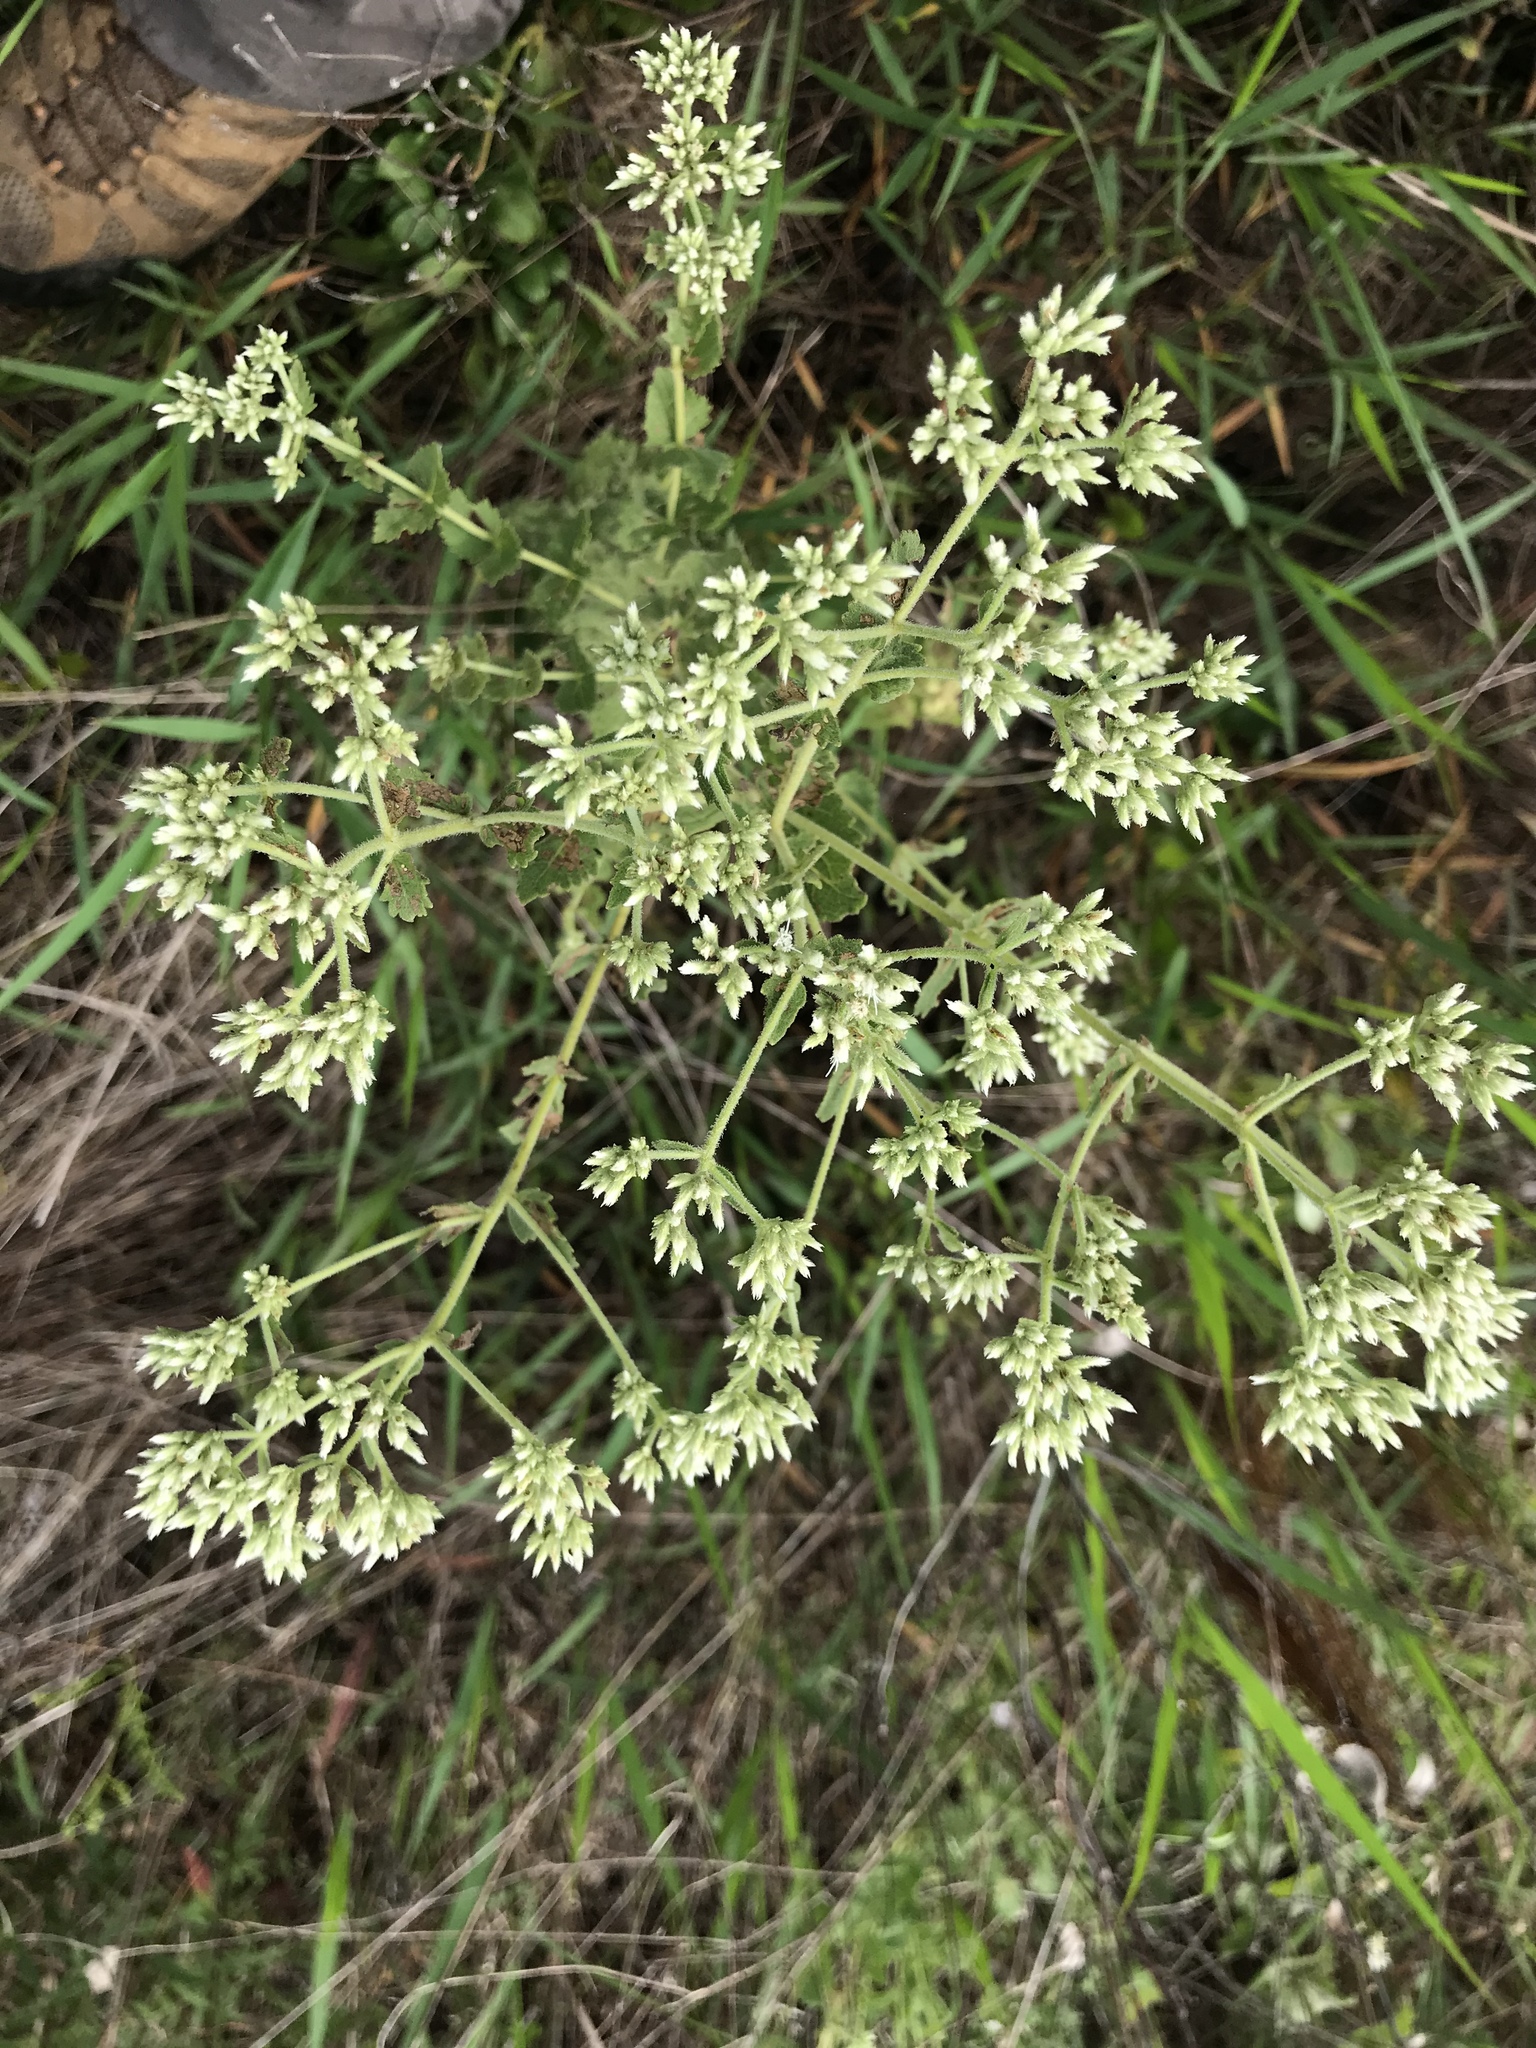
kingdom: Plantae
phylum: Tracheophyta
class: Magnoliopsida
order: Asterales
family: Asteraceae
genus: Eupatorium
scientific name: Eupatorium rotundifolium
